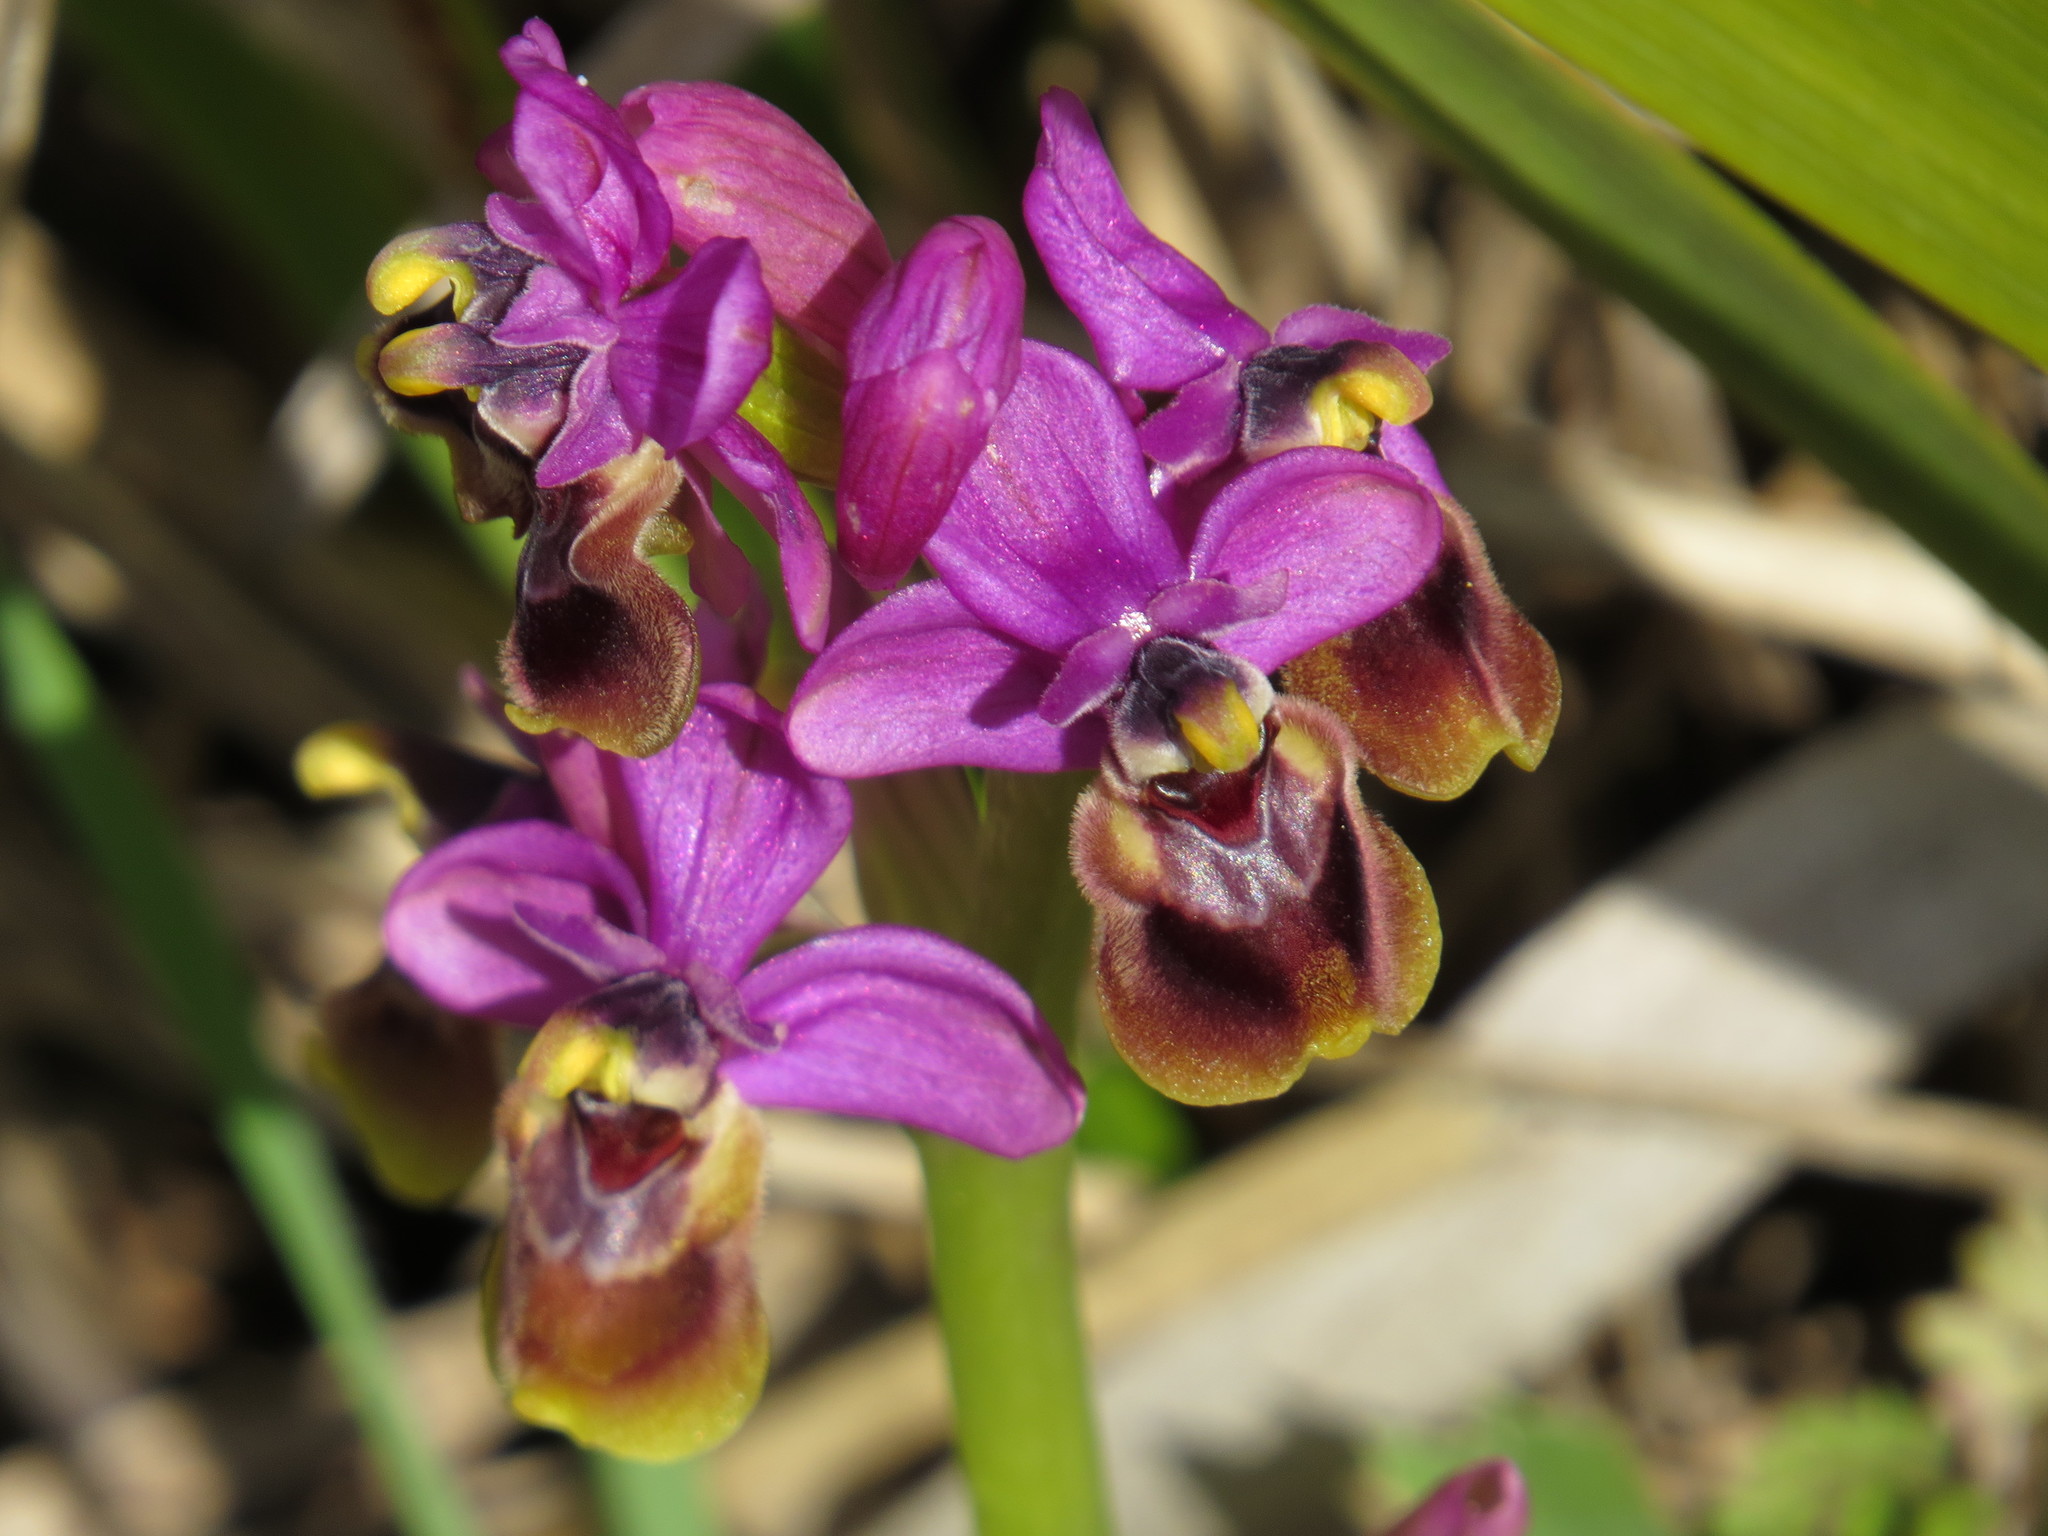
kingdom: Plantae
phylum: Tracheophyta
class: Liliopsida
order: Asparagales
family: Orchidaceae
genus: Ophrys
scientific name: Ophrys tenthredinifera
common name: Sawfly orchid
